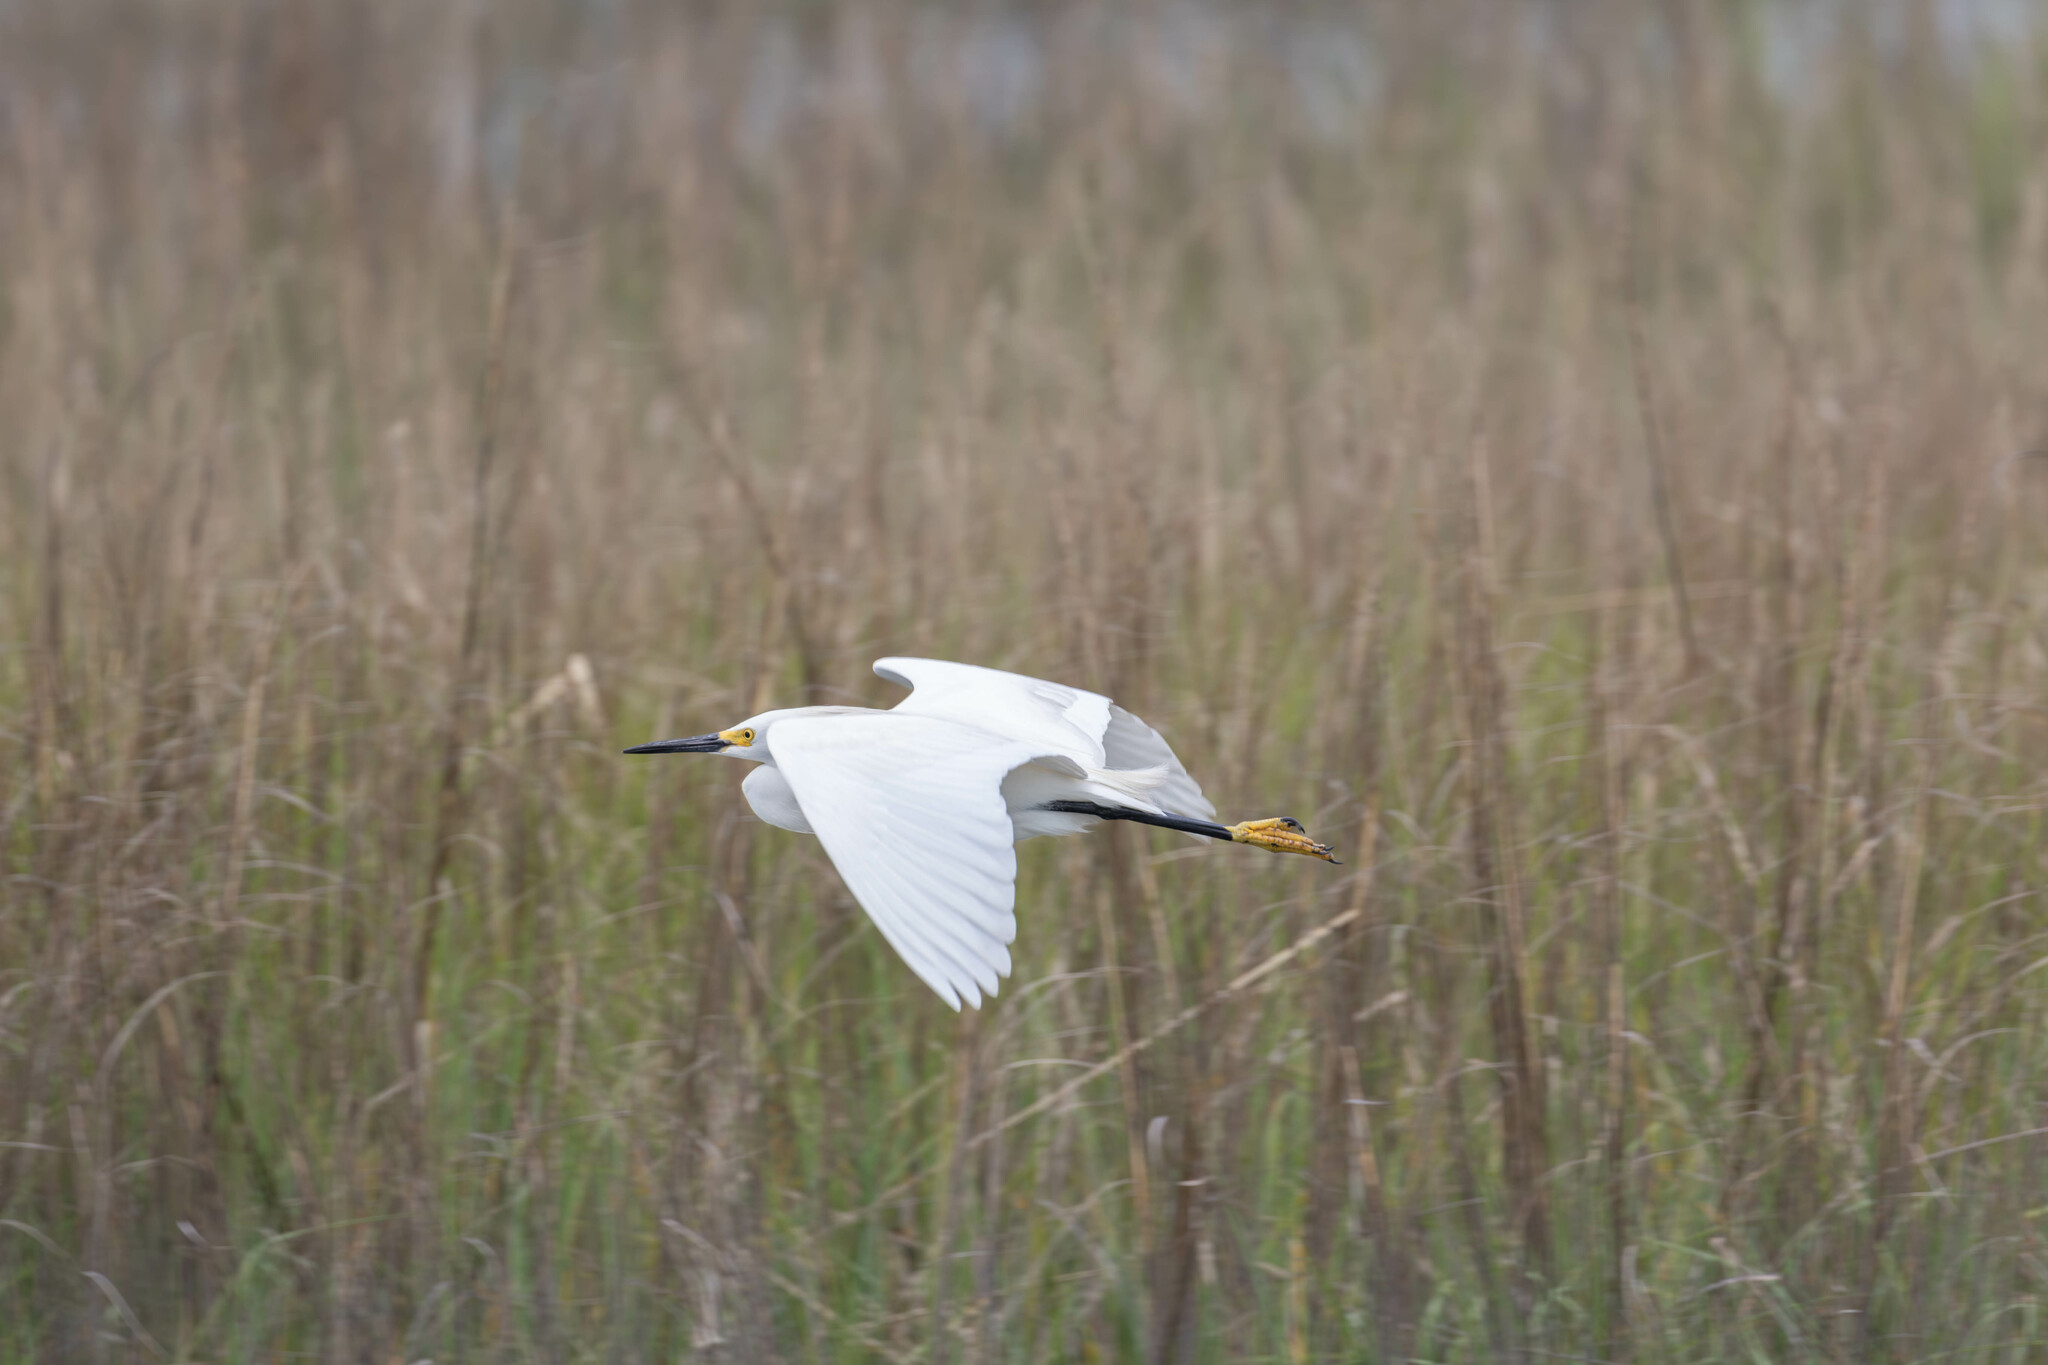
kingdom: Animalia
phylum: Chordata
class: Aves
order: Pelecaniformes
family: Ardeidae
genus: Egretta
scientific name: Egretta thula
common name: Snowy egret
